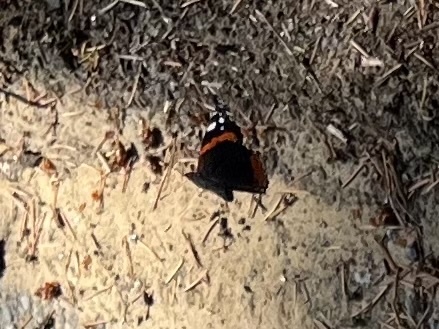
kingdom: Animalia
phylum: Arthropoda
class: Insecta
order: Lepidoptera
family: Nymphalidae
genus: Vanessa
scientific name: Vanessa atalanta
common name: Red admiral
